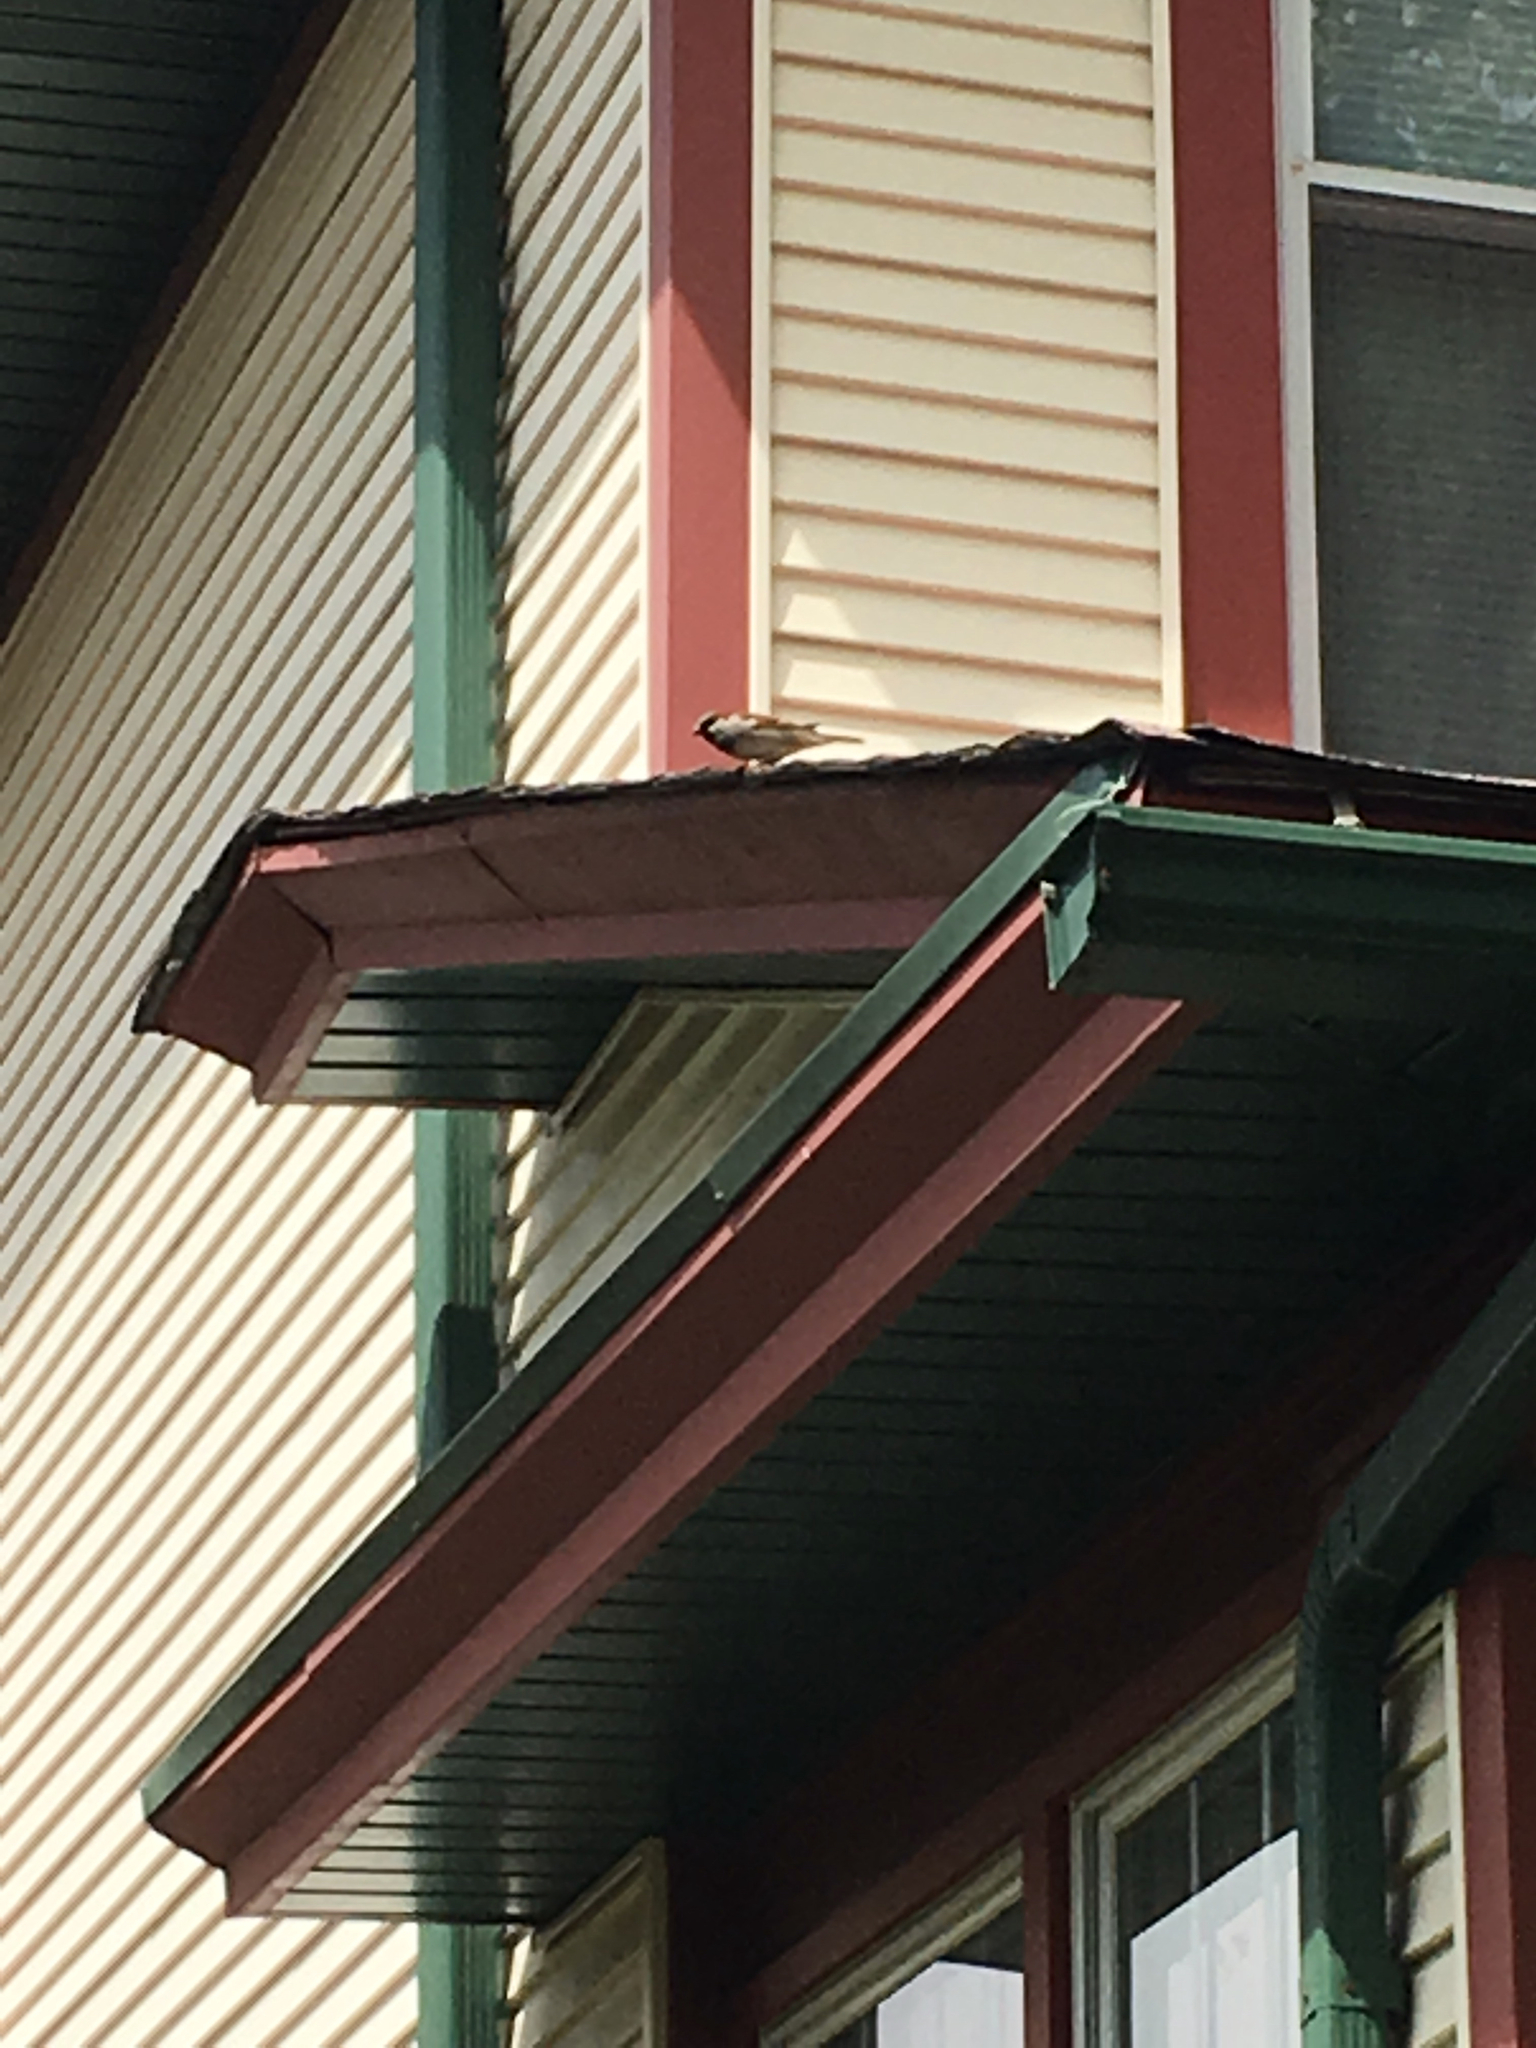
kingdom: Animalia
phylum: Chordata
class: Aves
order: Passeriformes
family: Passeridae
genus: Passer
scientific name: Passer domesticus
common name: House sparrow
